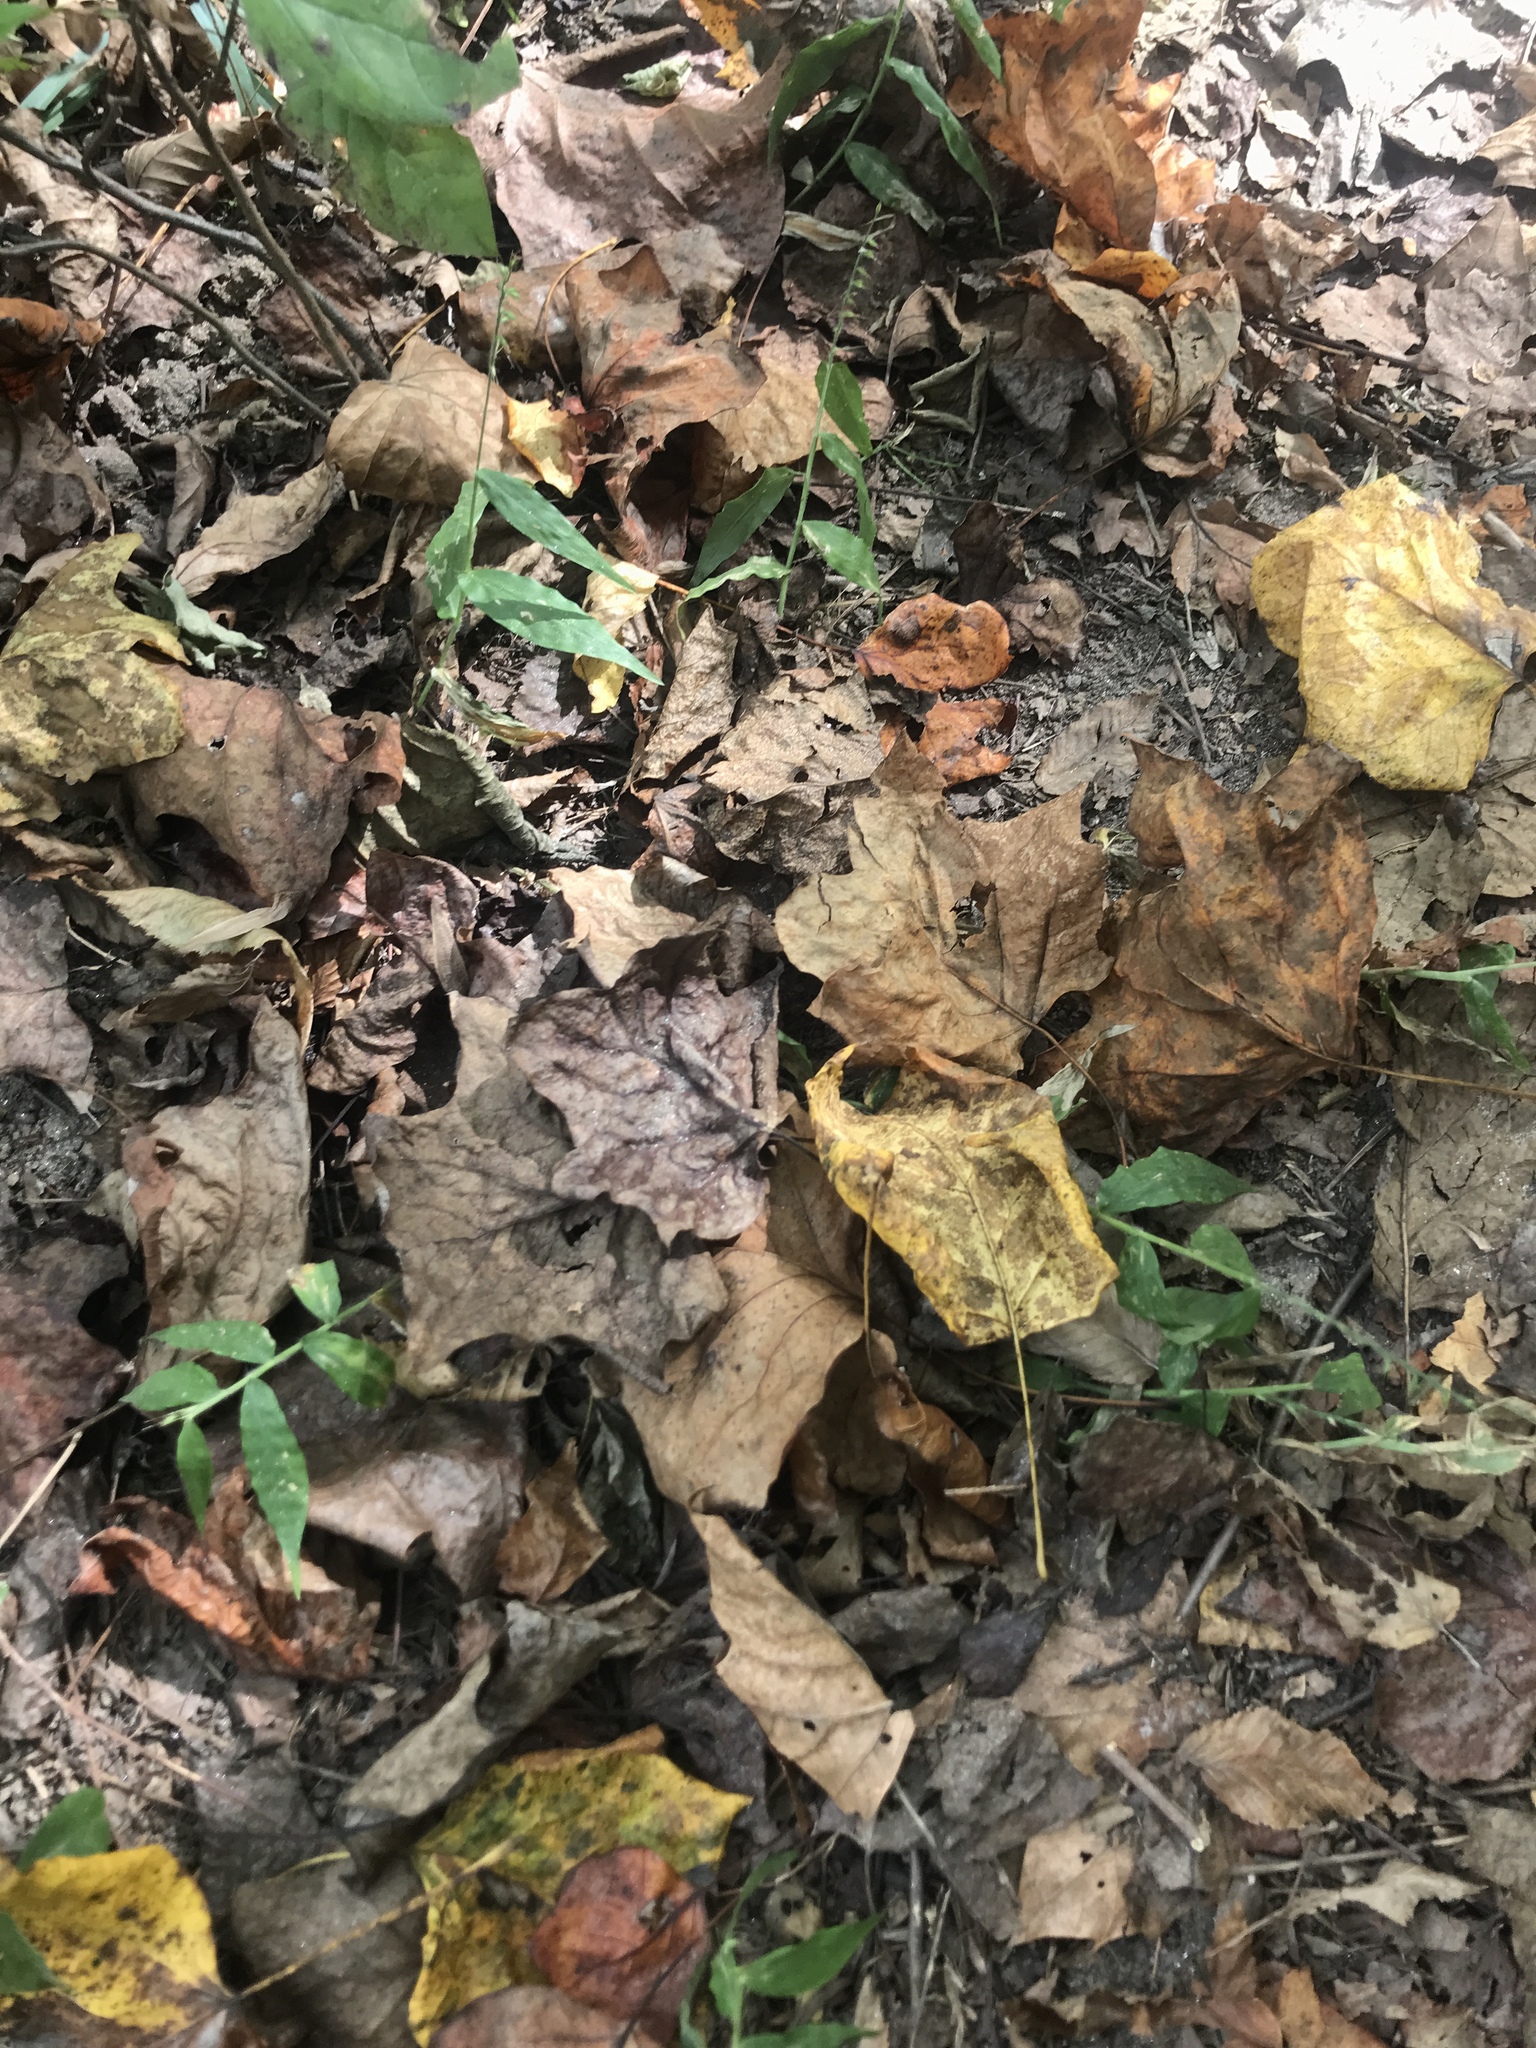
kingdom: Plantae
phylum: Tracheophyta
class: Liliopsida
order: Poales
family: Poaceae
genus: Oplismenus
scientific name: Oplismenus undulatifolius
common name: Wavyleaf basketgrass
